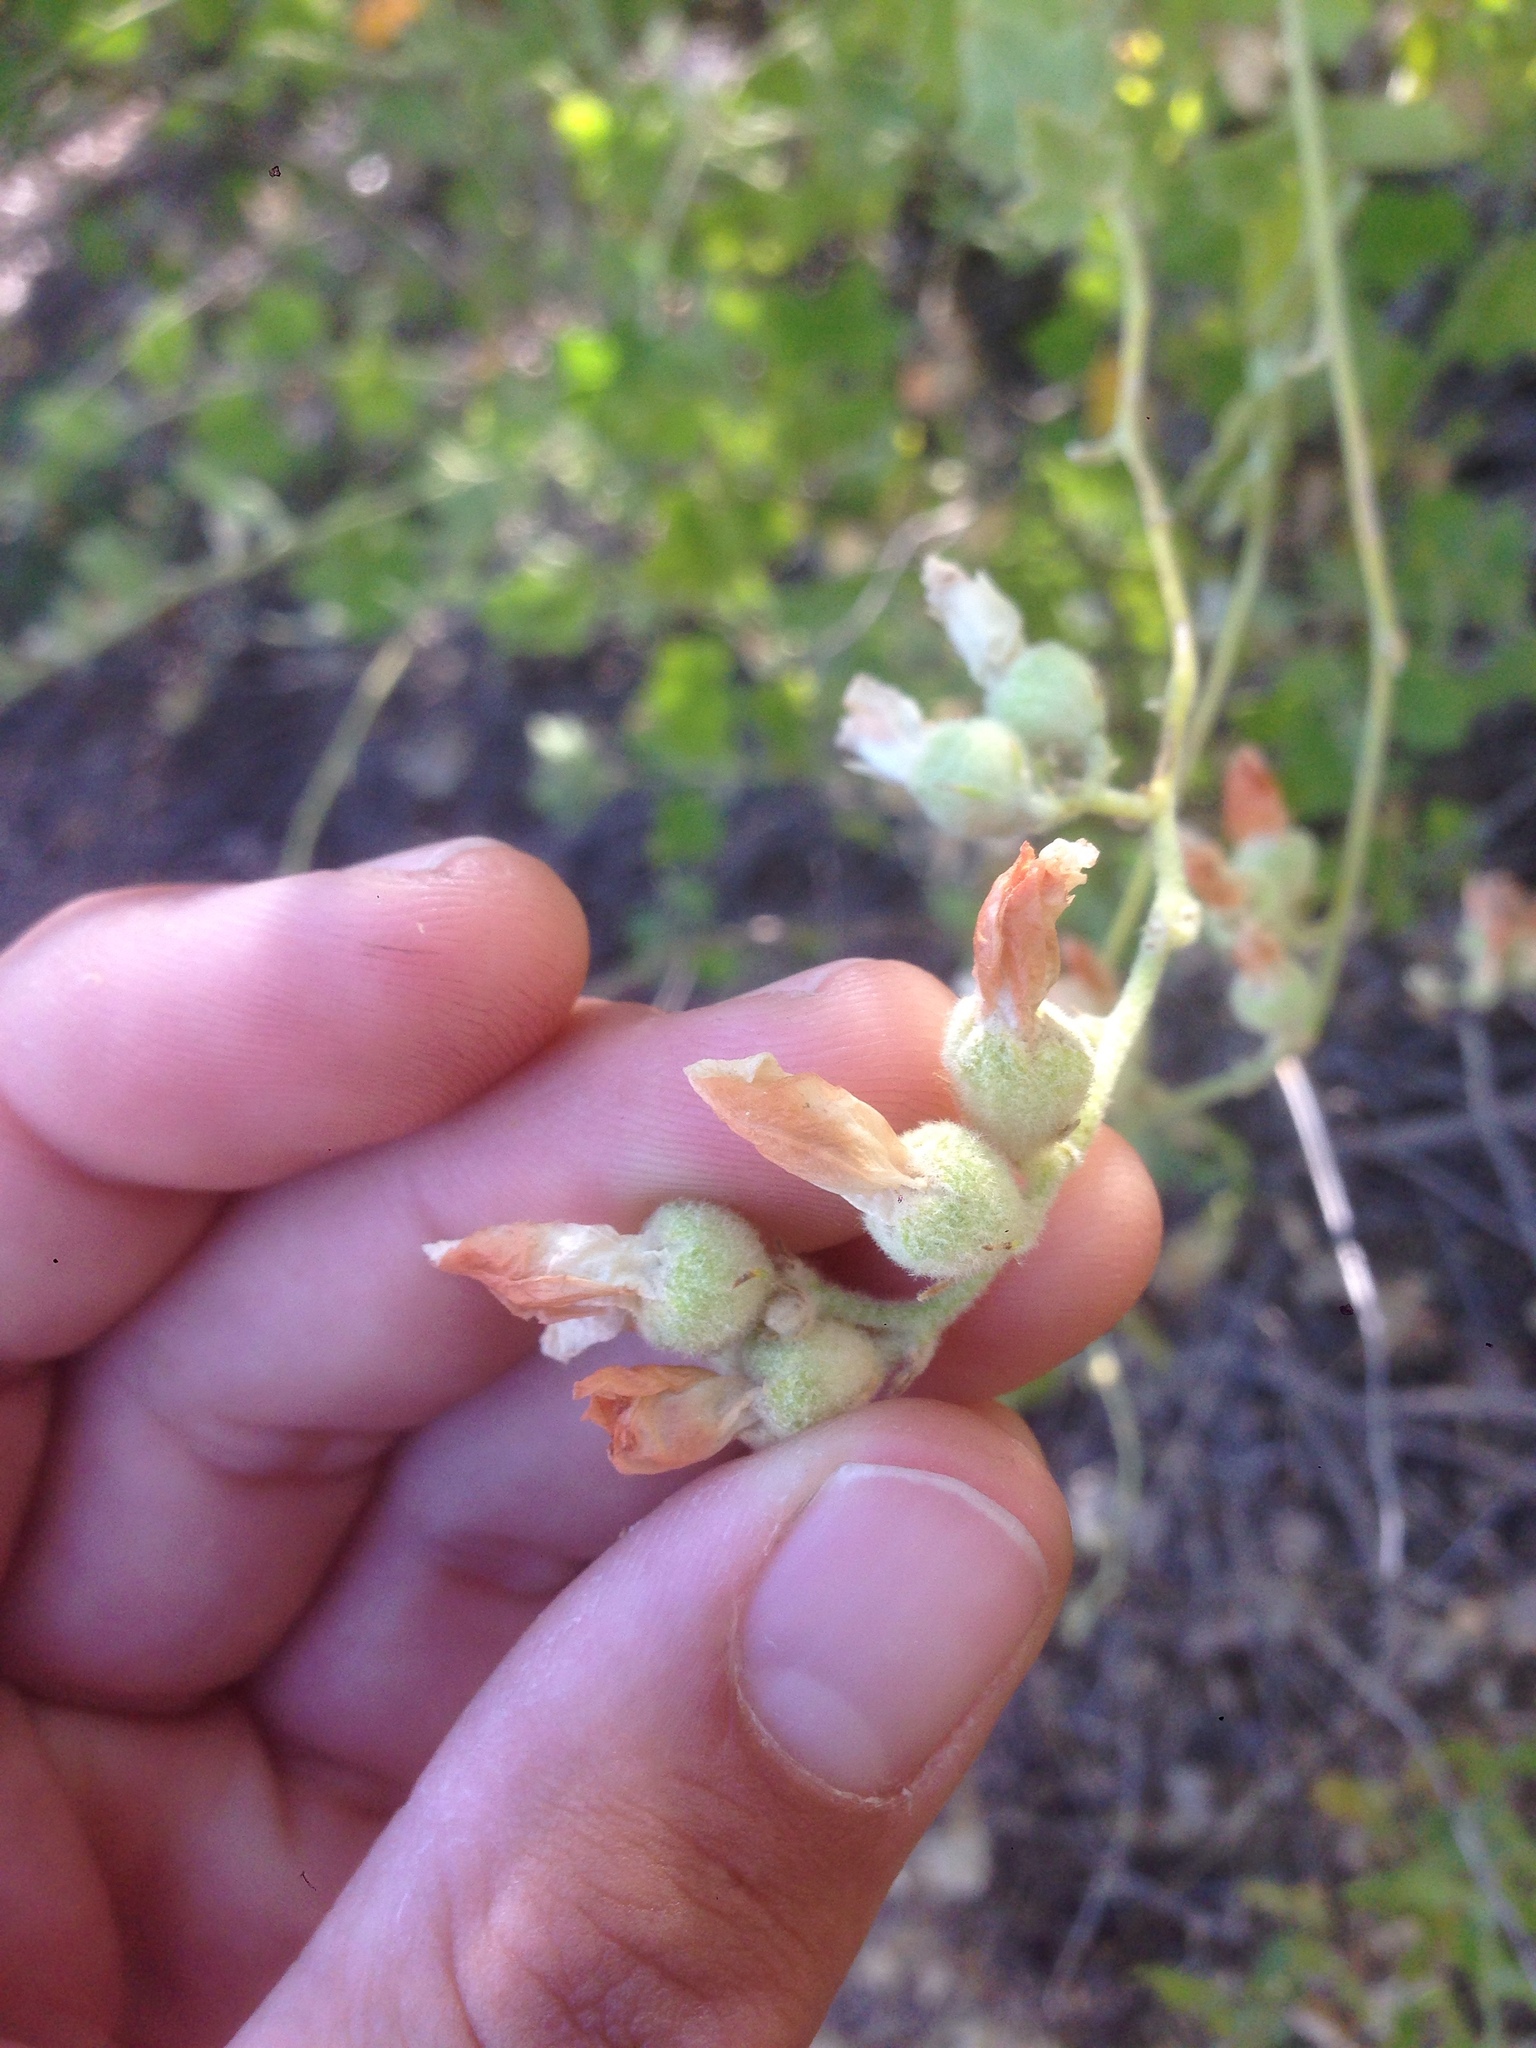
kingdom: Plantae
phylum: Tracheophyta
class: Magnoliopsida
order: Malvales
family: Malvaceae
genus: Malacothamnus
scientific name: Malacothamnus fasciculatus
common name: Sant cruz island bush-mallow
